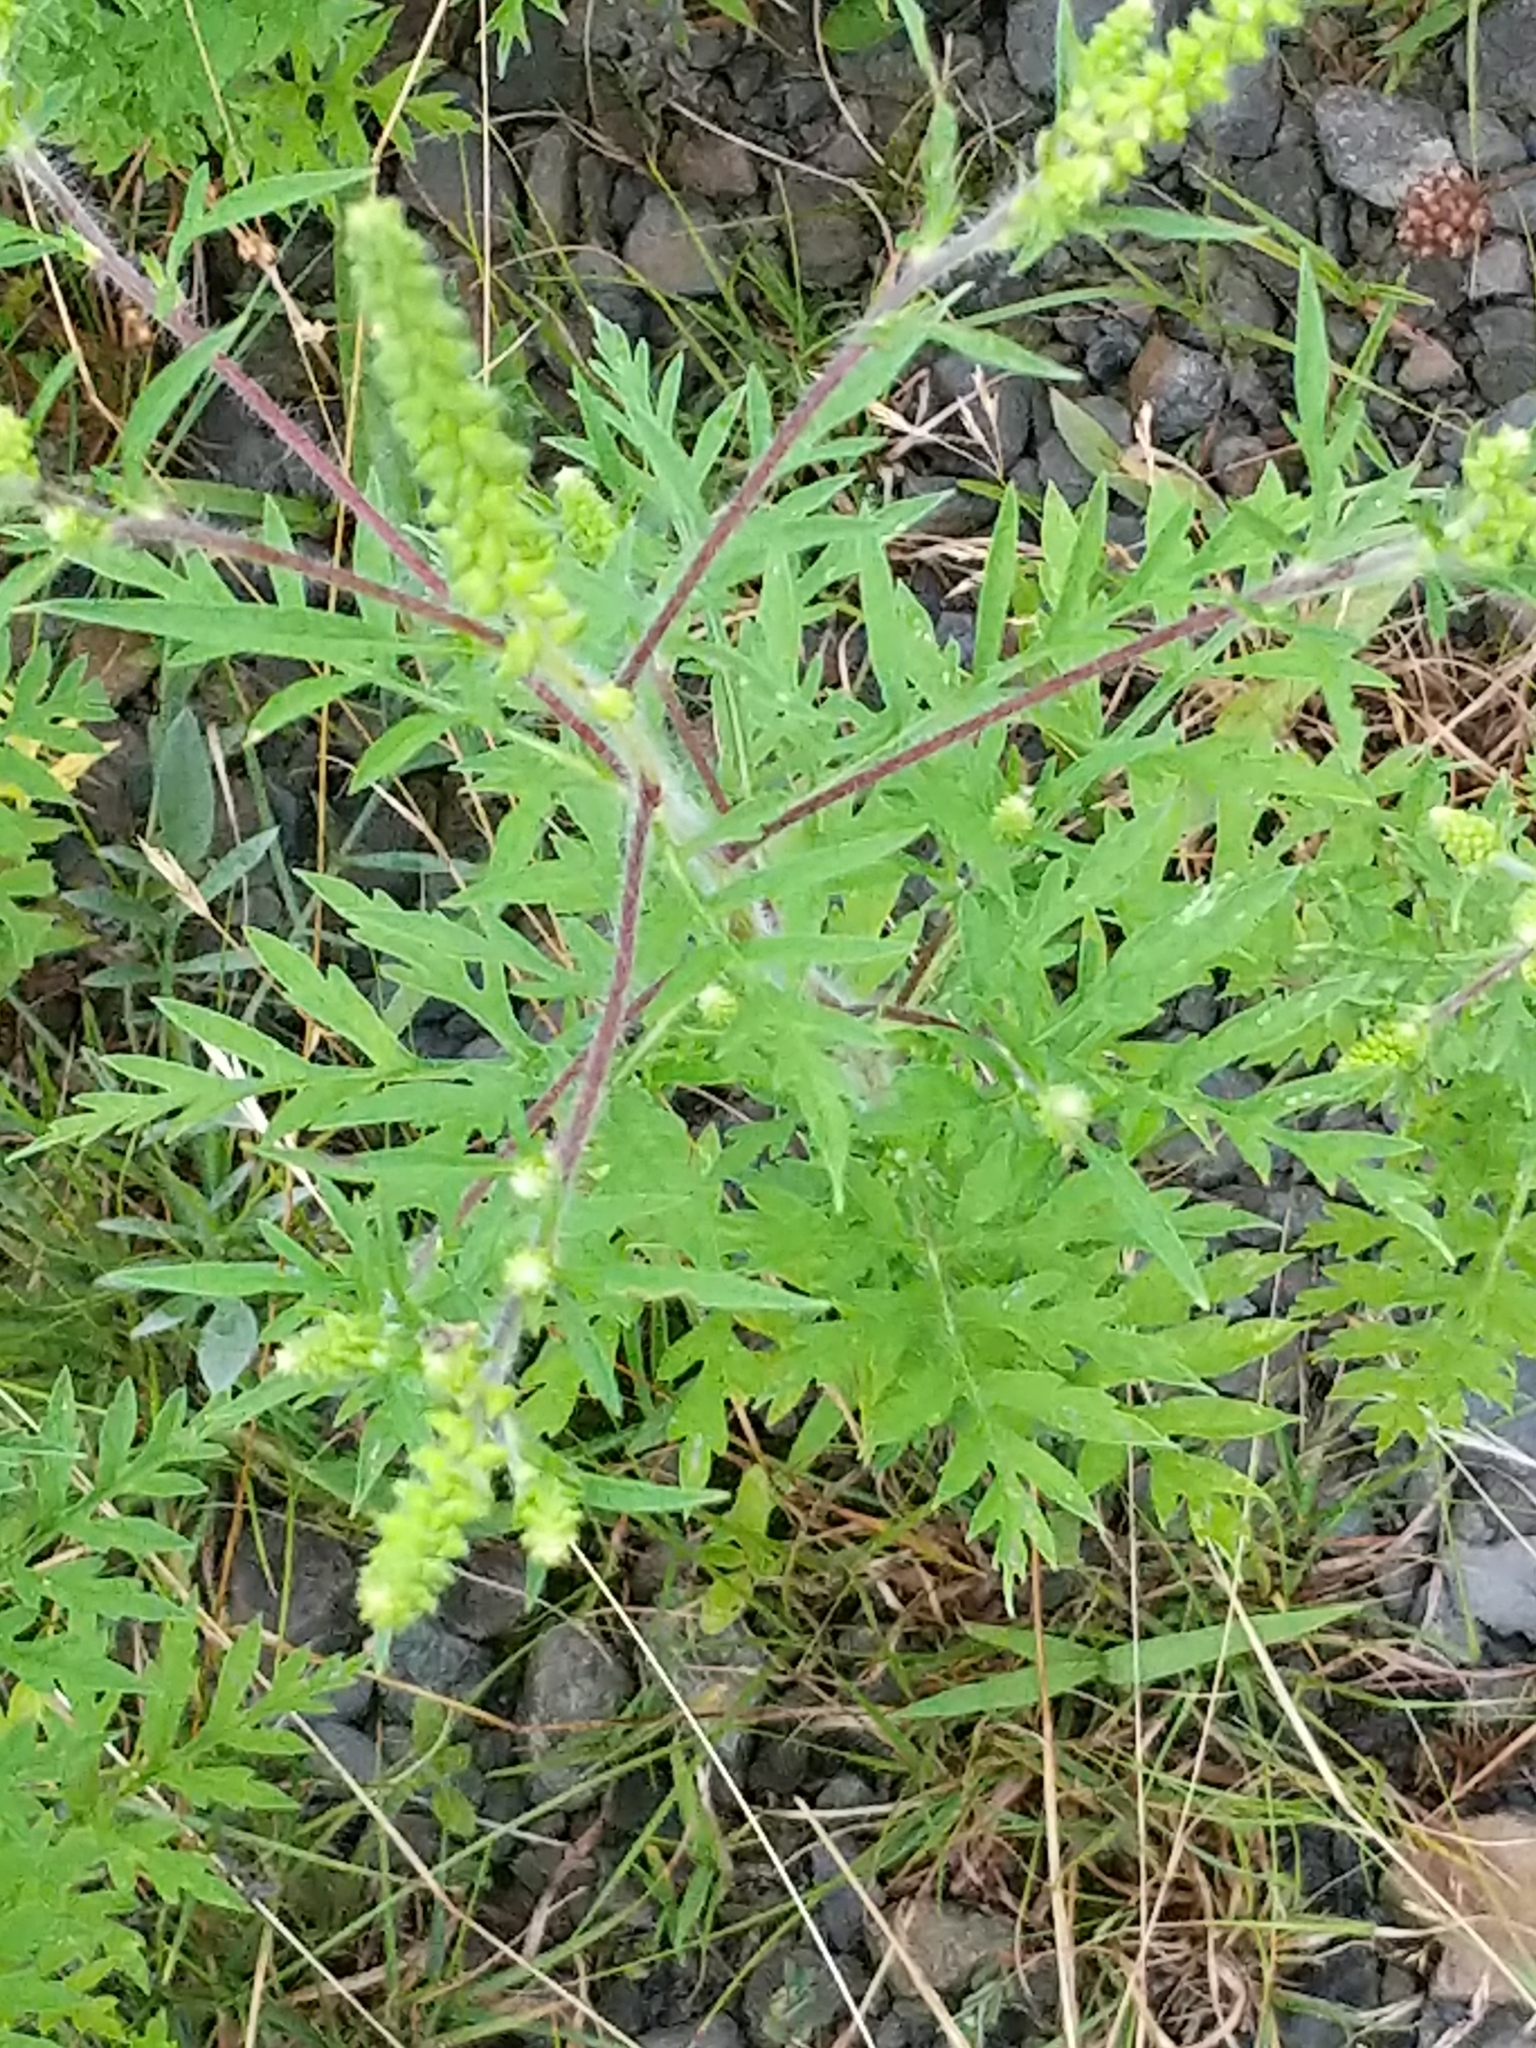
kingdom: Plantae
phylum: Tracheophyta
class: Magnoliopsida
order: Asterales
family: Asteraceae
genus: Ambrosia
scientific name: Ambrosia artemisiifolia
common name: Annual ragweed
